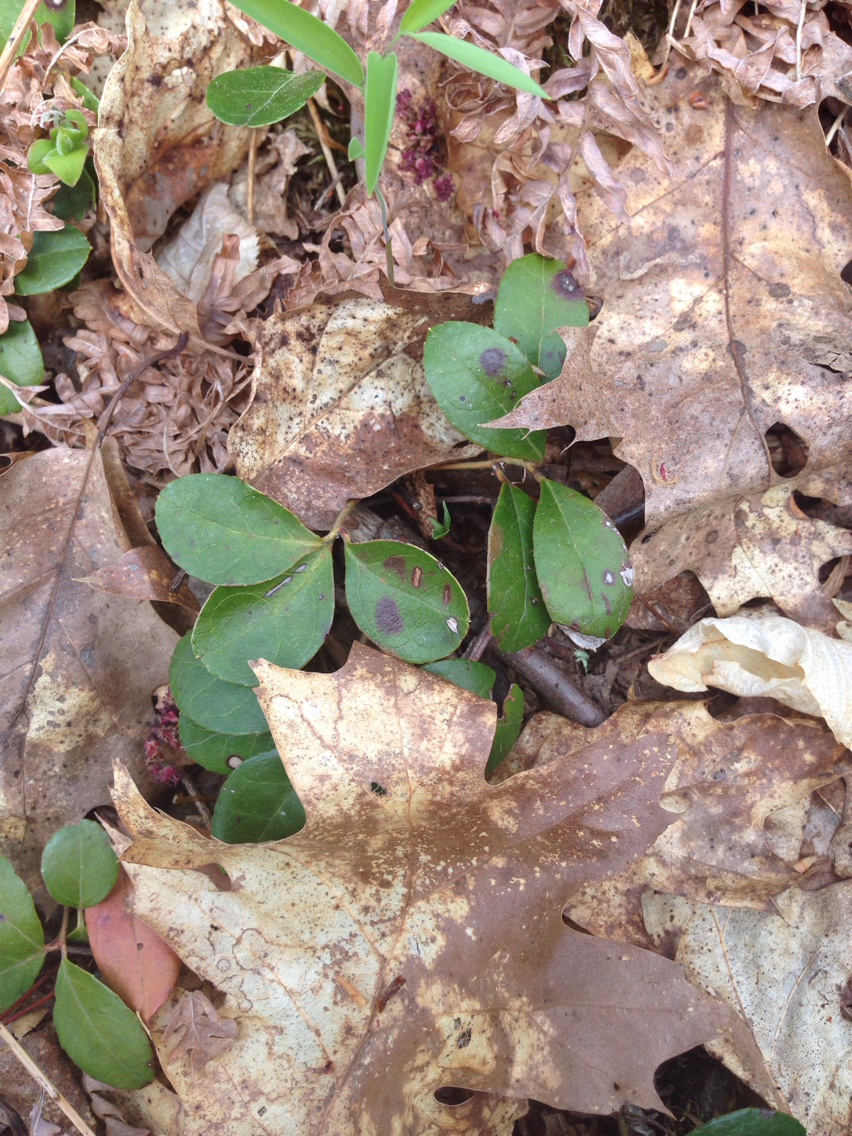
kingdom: Plantae
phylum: Tracheophyta
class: Magnoliopsida
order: Ericales
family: Ericaceae
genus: Gaultheria
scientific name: Gaultheria procumbens
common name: Checkerberry
